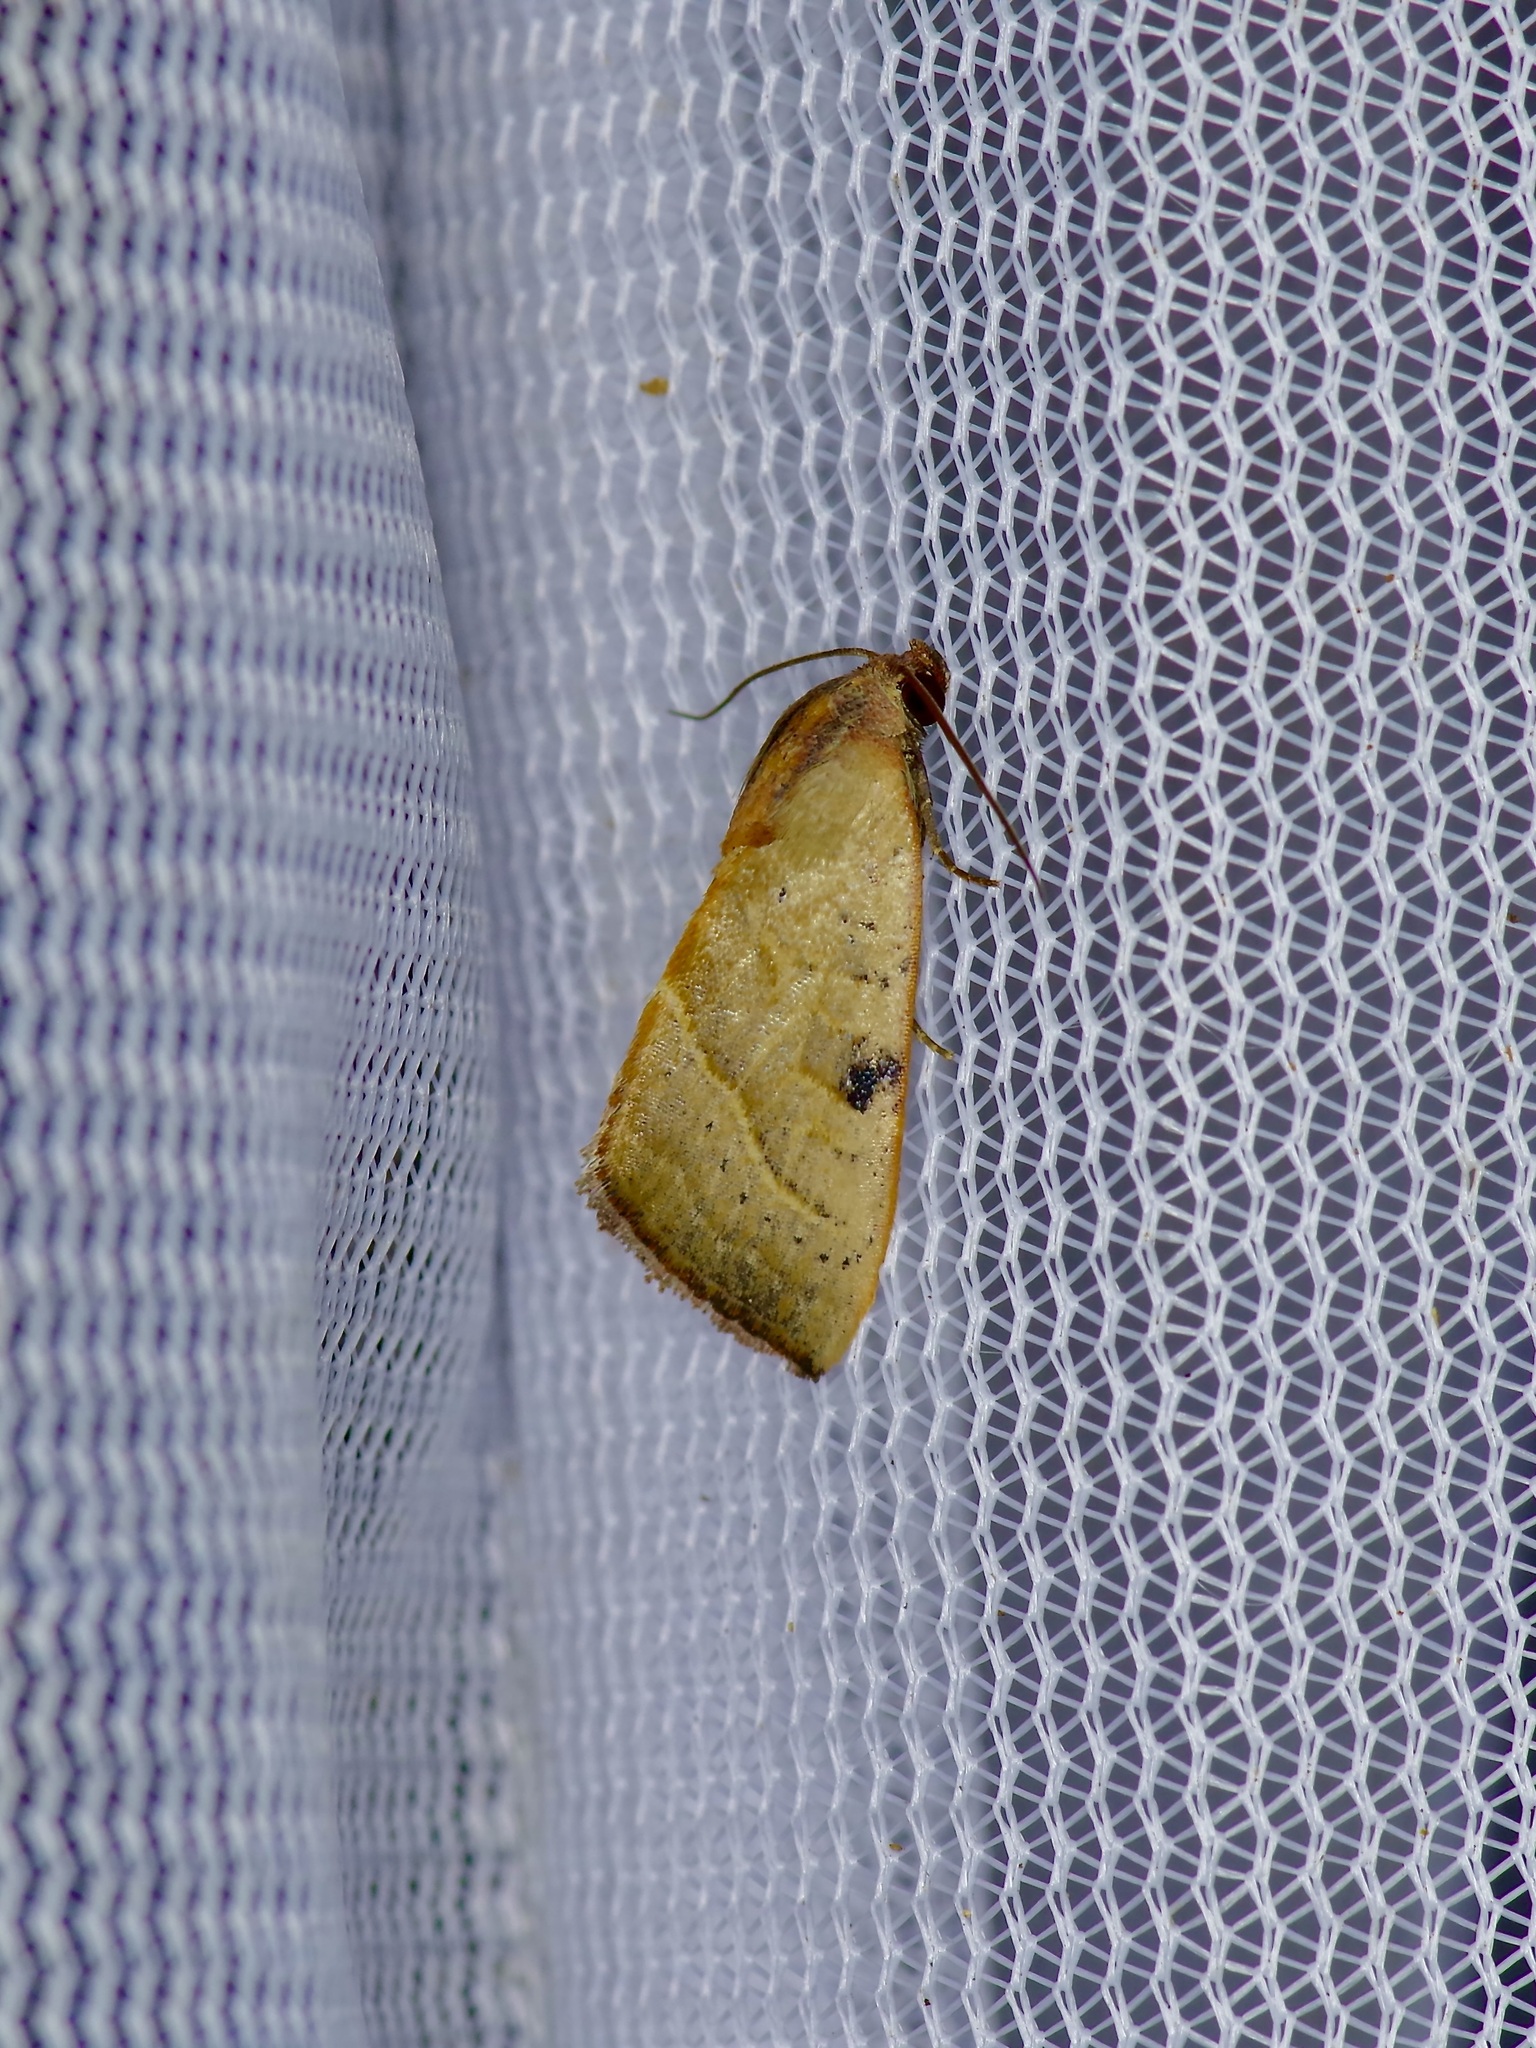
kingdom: Animalia
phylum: Arthropoda
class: Insecta
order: Lepidoptera
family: Noctuidae
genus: Galgula
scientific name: Galgula partita
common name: Wedgeling
